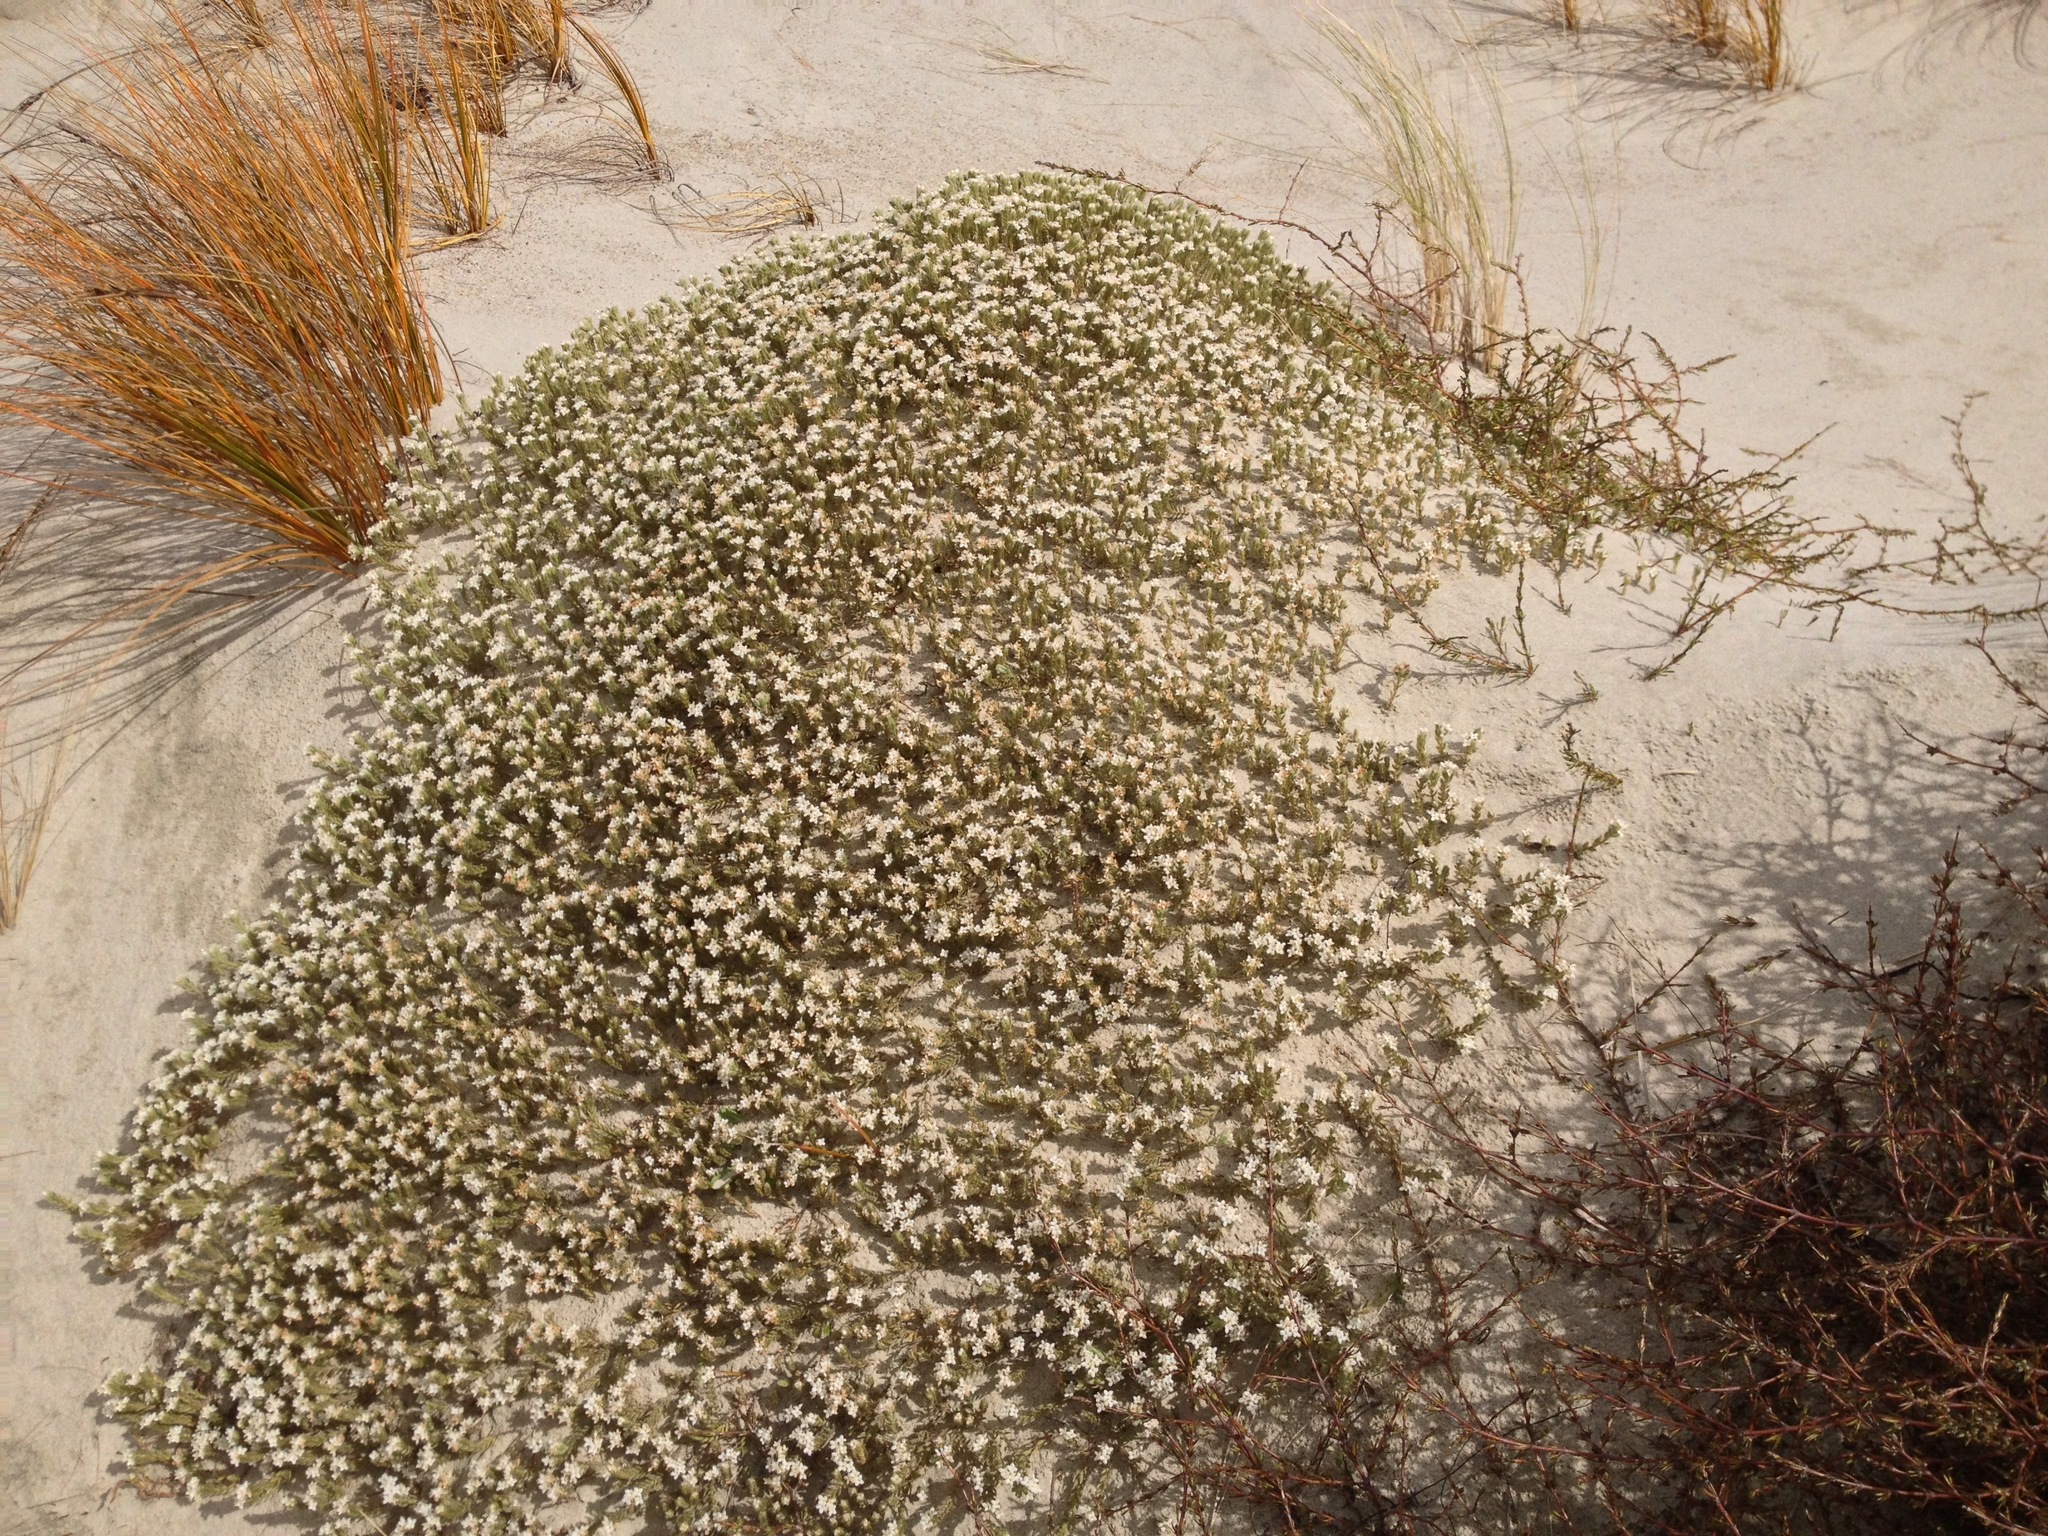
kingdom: Plantae
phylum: Tracheophyta
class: Magnoliopsida
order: Asterales
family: Asteraceae
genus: Raoulia
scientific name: Raoulia hookeri
